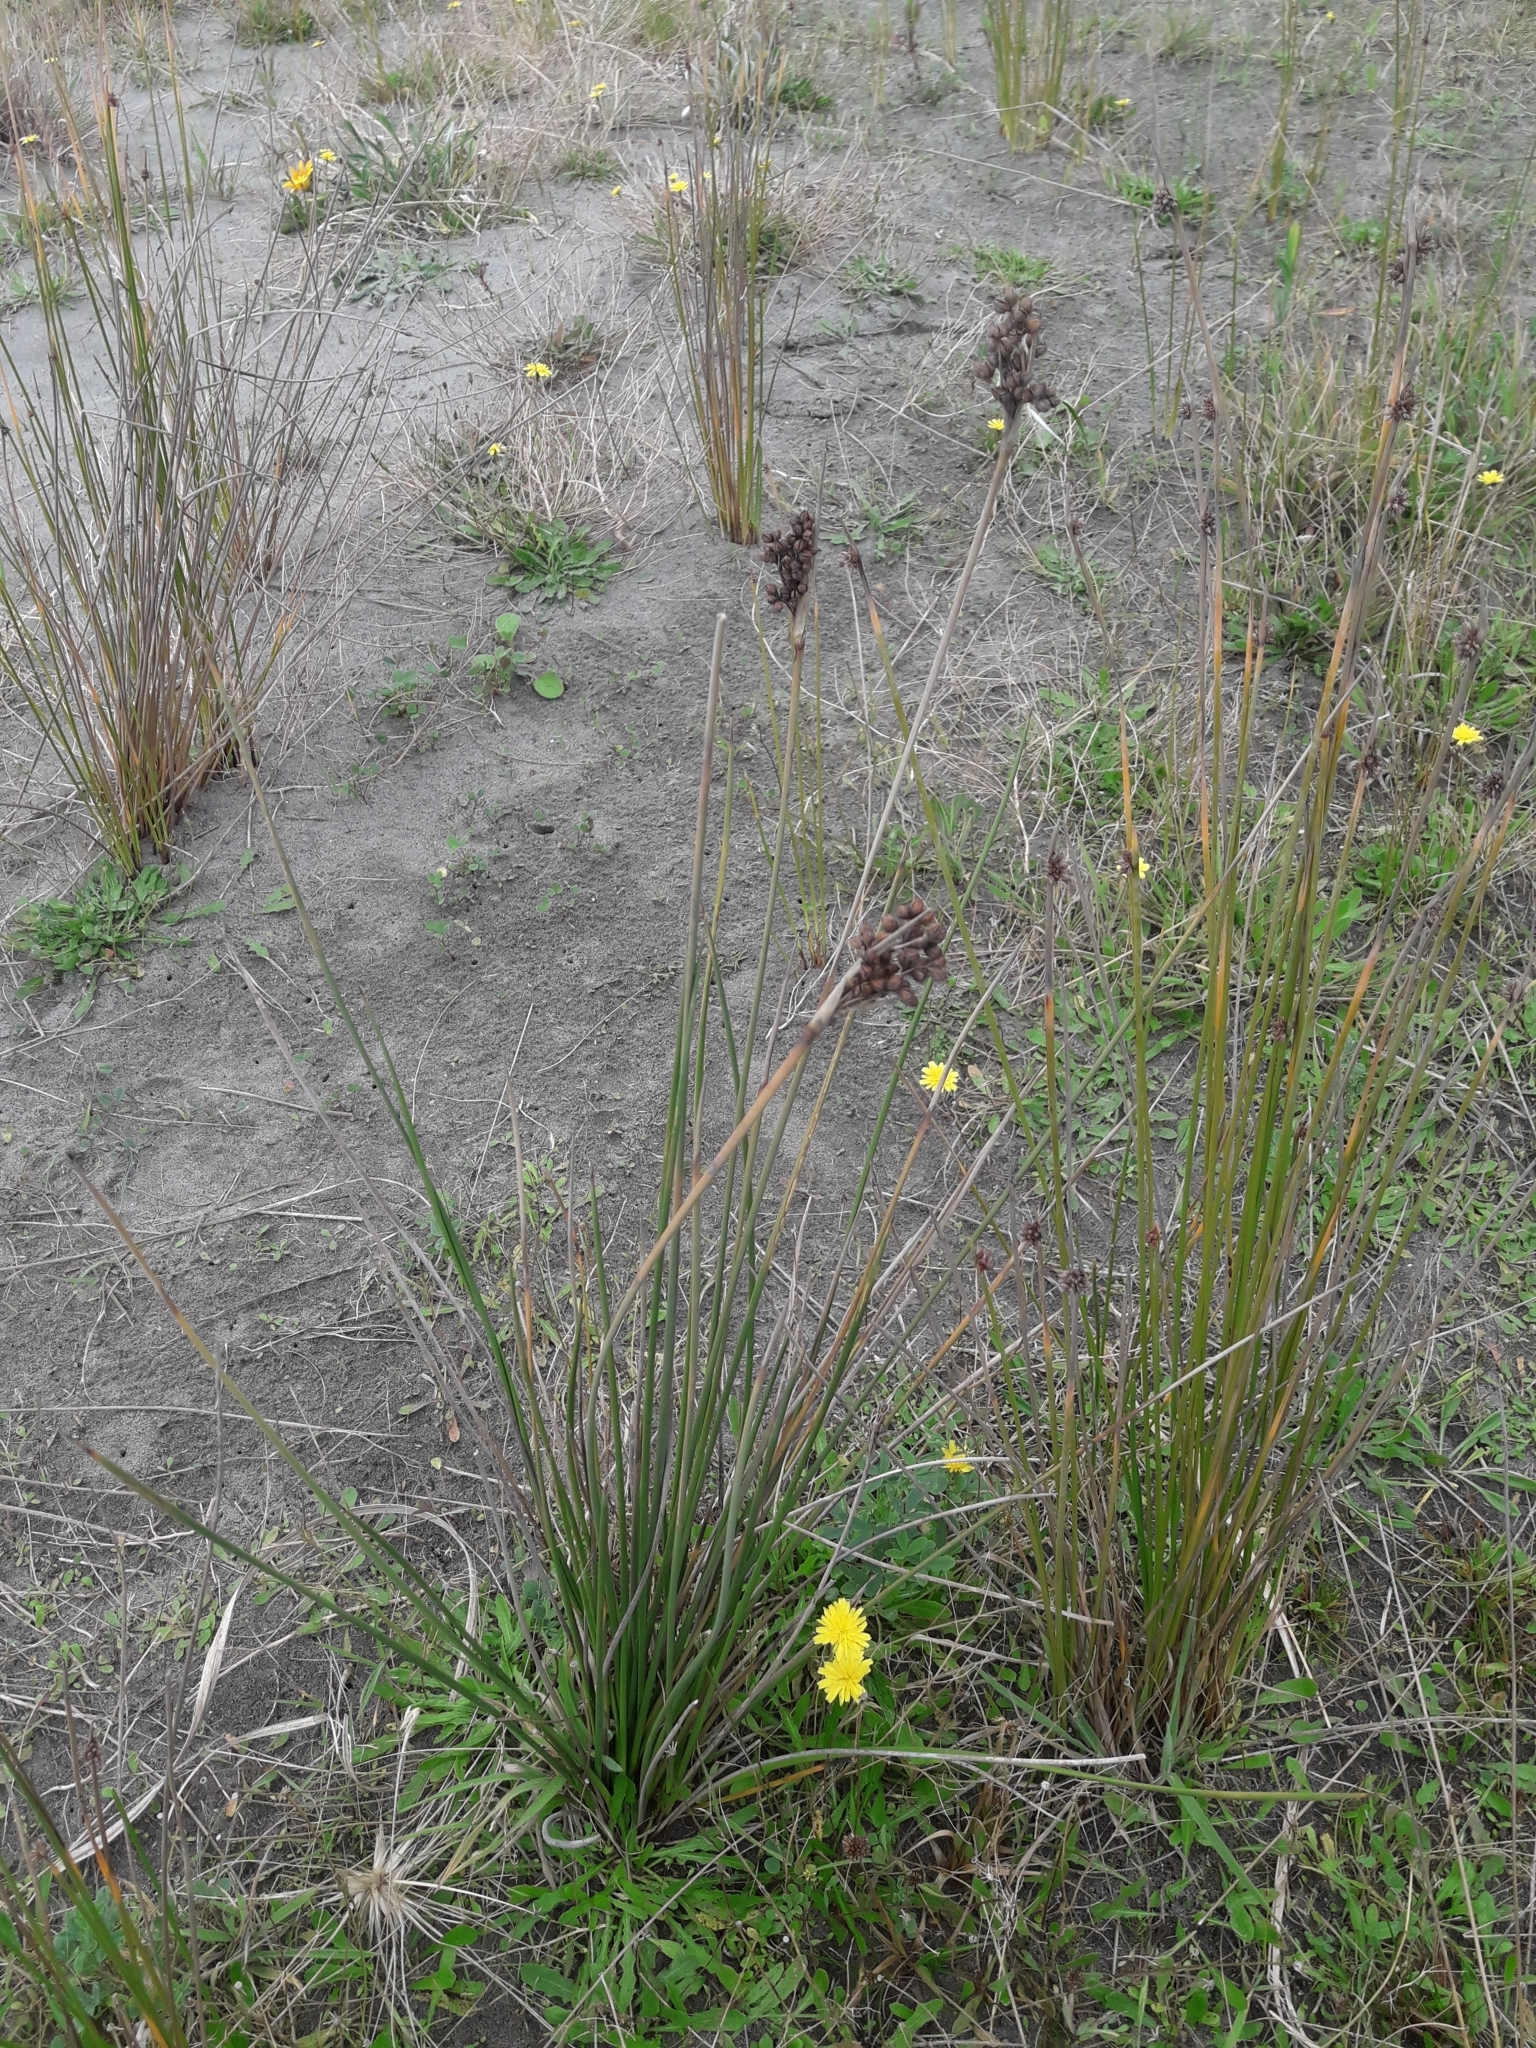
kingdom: Plantae
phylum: Tracheophyta
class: Liliopsida
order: Poales
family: Juncaceae
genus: Juncus
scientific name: Juncus acutus
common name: Sharp rush
